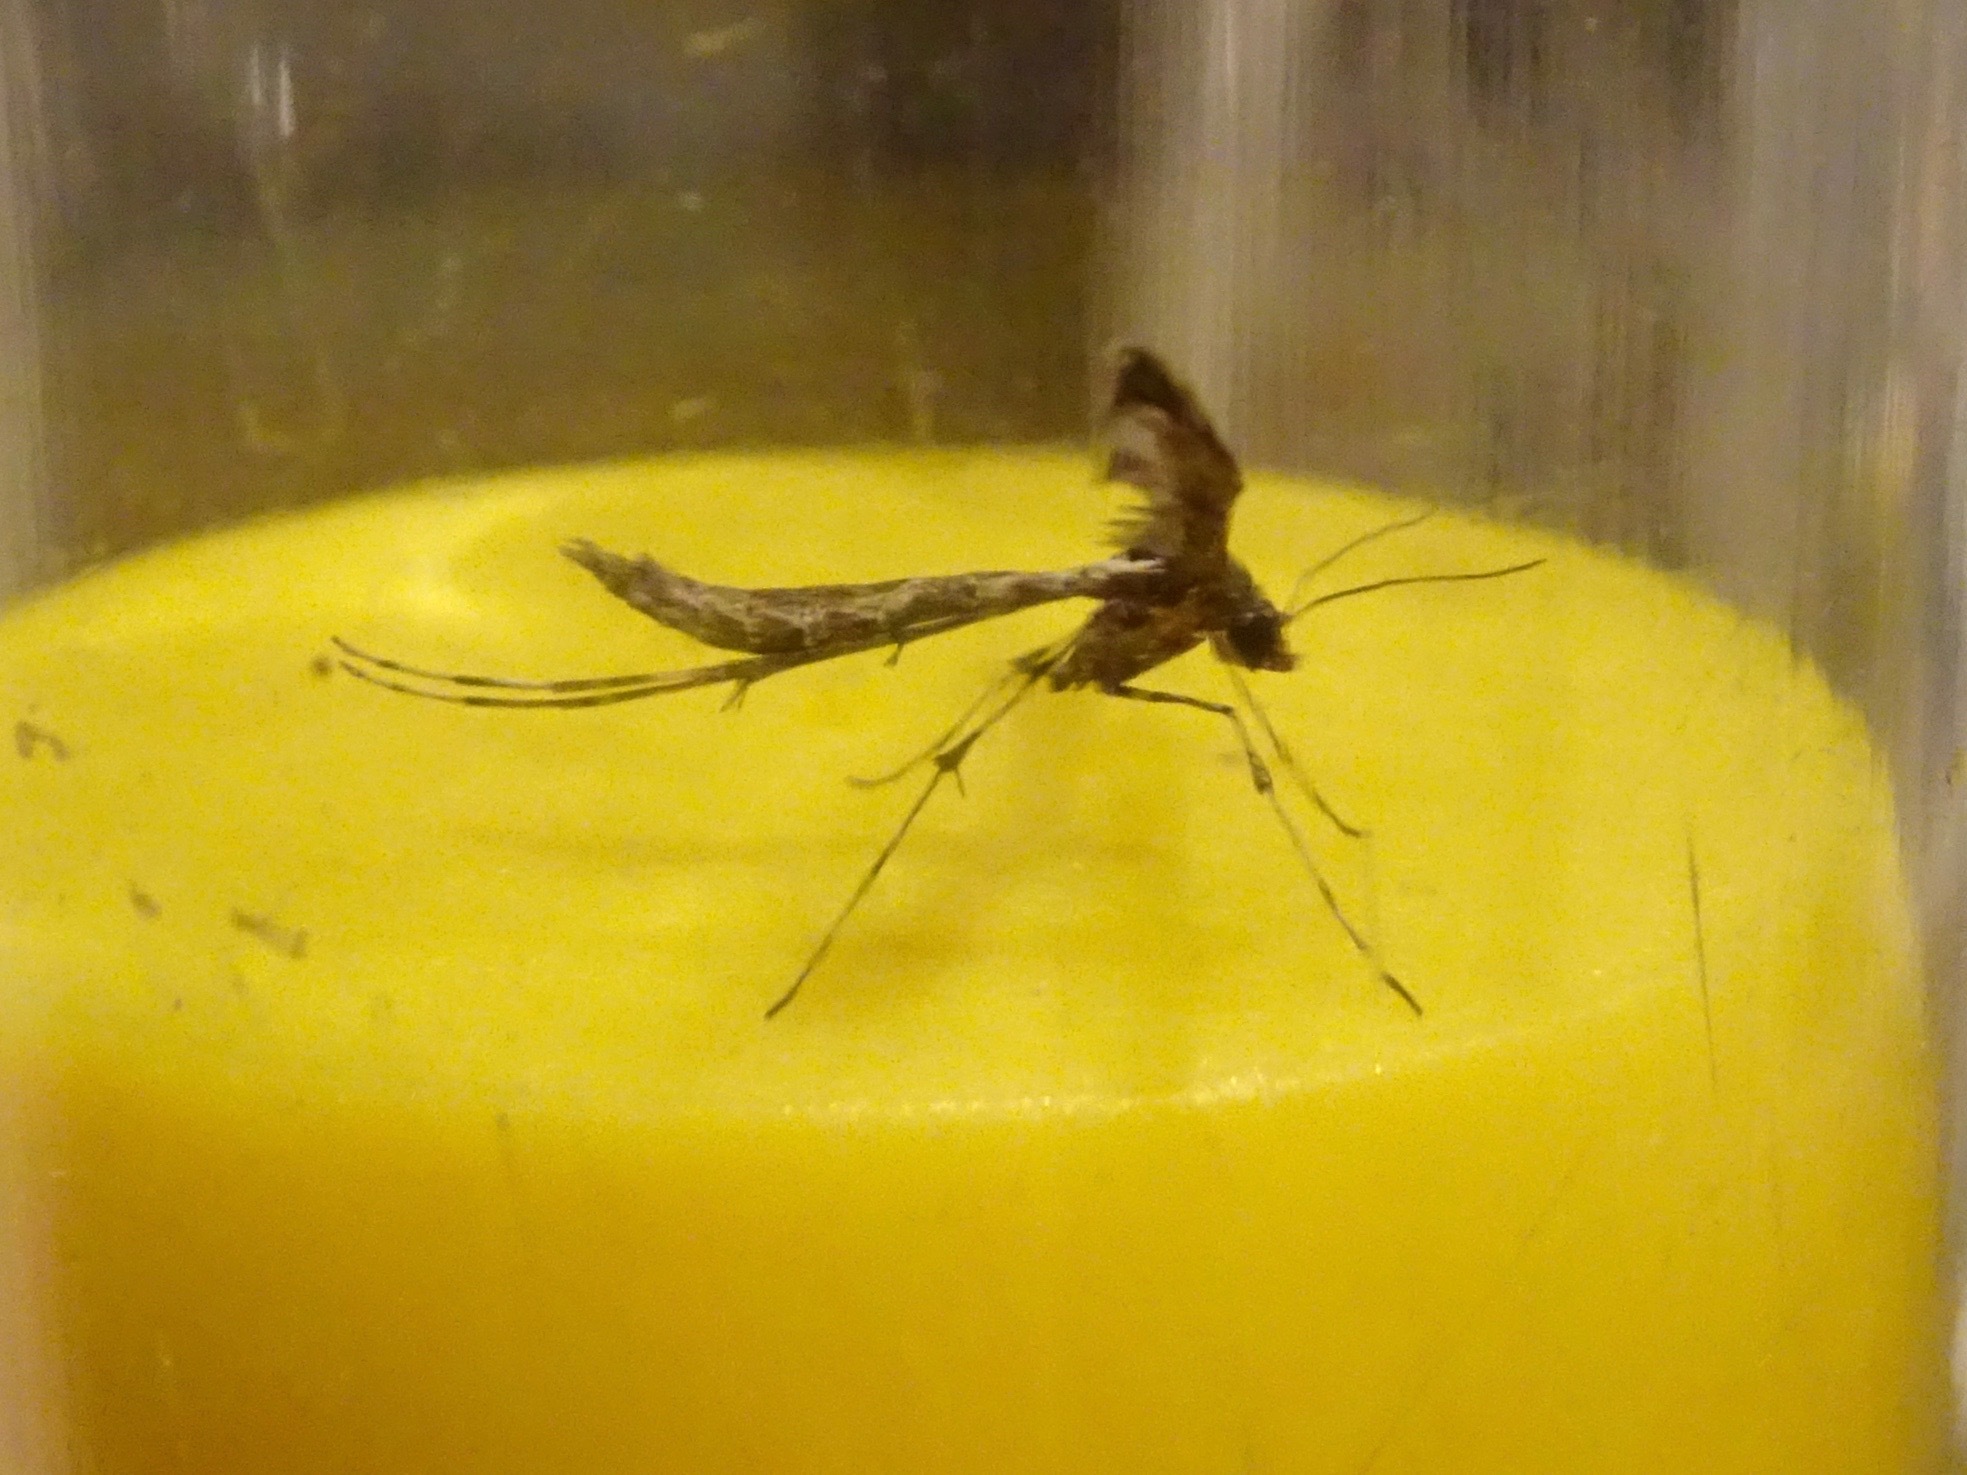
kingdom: Animalia
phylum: Arthropoda
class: Insecta
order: Lepidoptera
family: Pterophoridae
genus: Anstenoptilia
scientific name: Anstenoptilia marmarodactyla
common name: Moth
